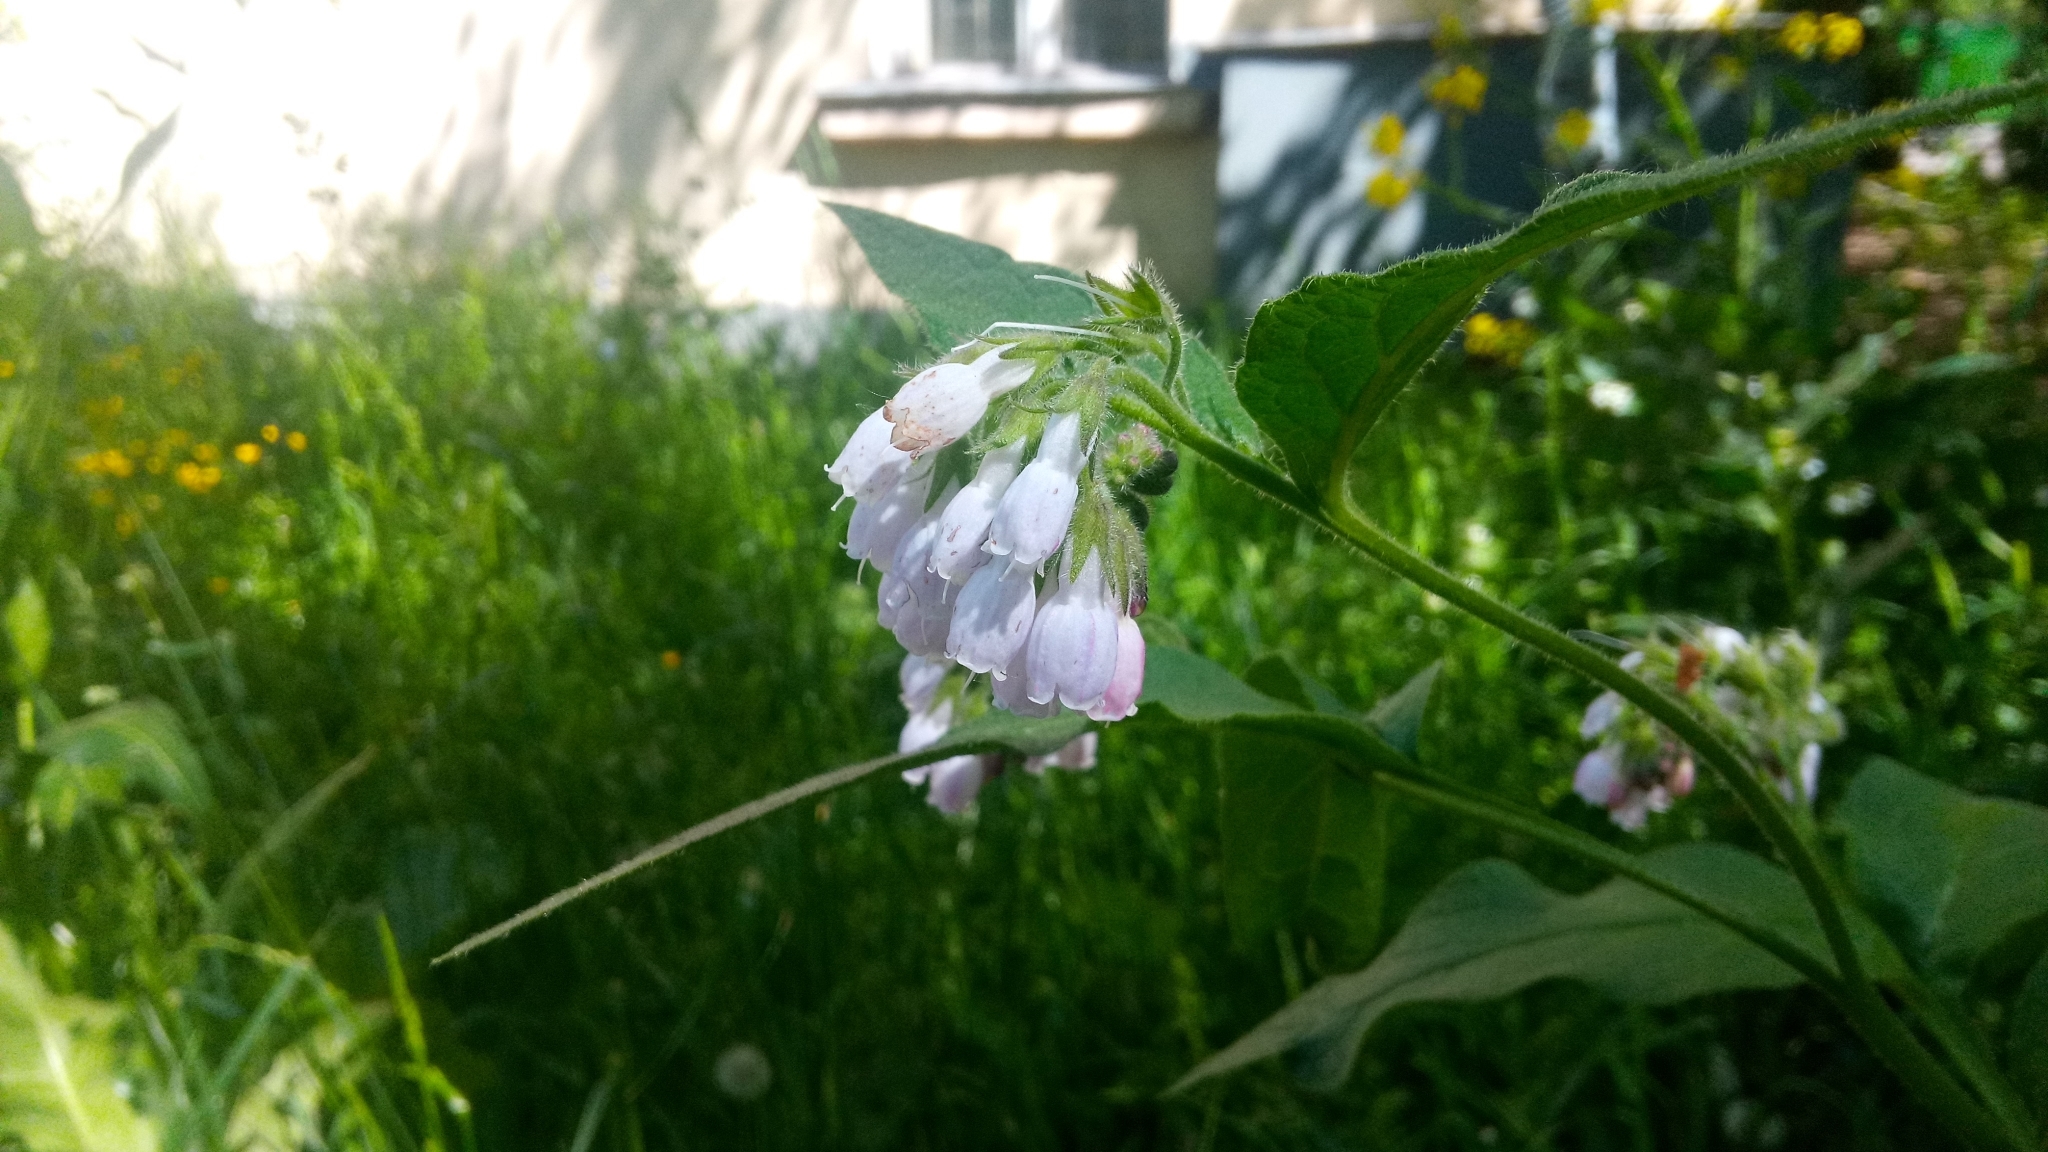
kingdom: Plantae
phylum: Tracheophyta
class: Magnoliopsida
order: Boraginales
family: Boraginaceae
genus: Symphytum
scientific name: Symphytum uplandicum
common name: Russian comfrey
